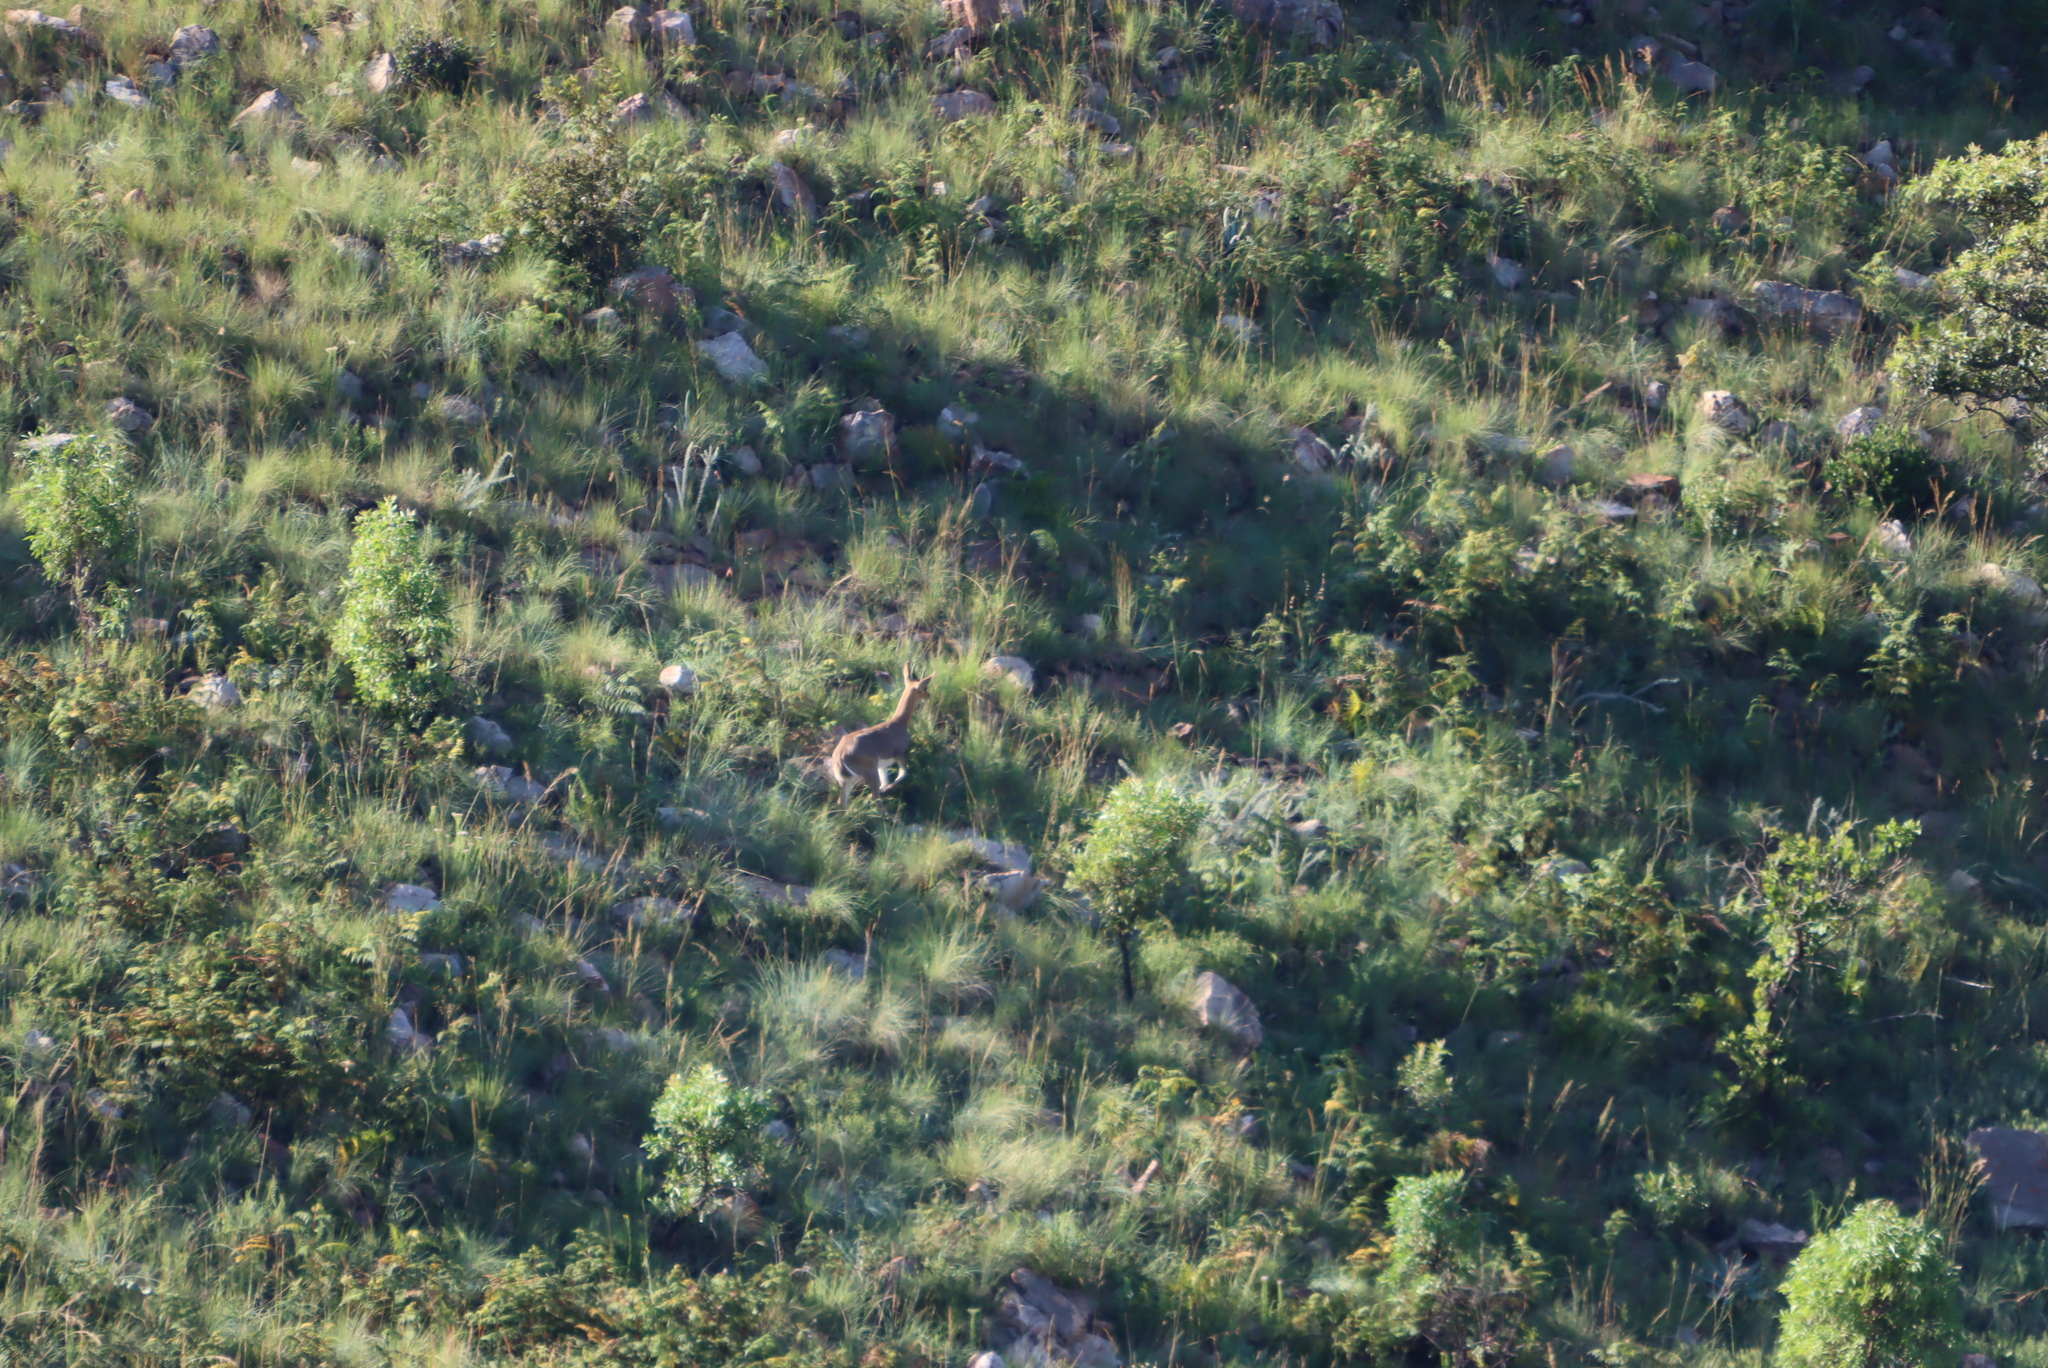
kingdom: Animalia
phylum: Chordata
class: Mammalia
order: Artiodactyla
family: Bovidae
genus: Redunca
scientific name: Redunca fulvorufula
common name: Mountain reedbuck
